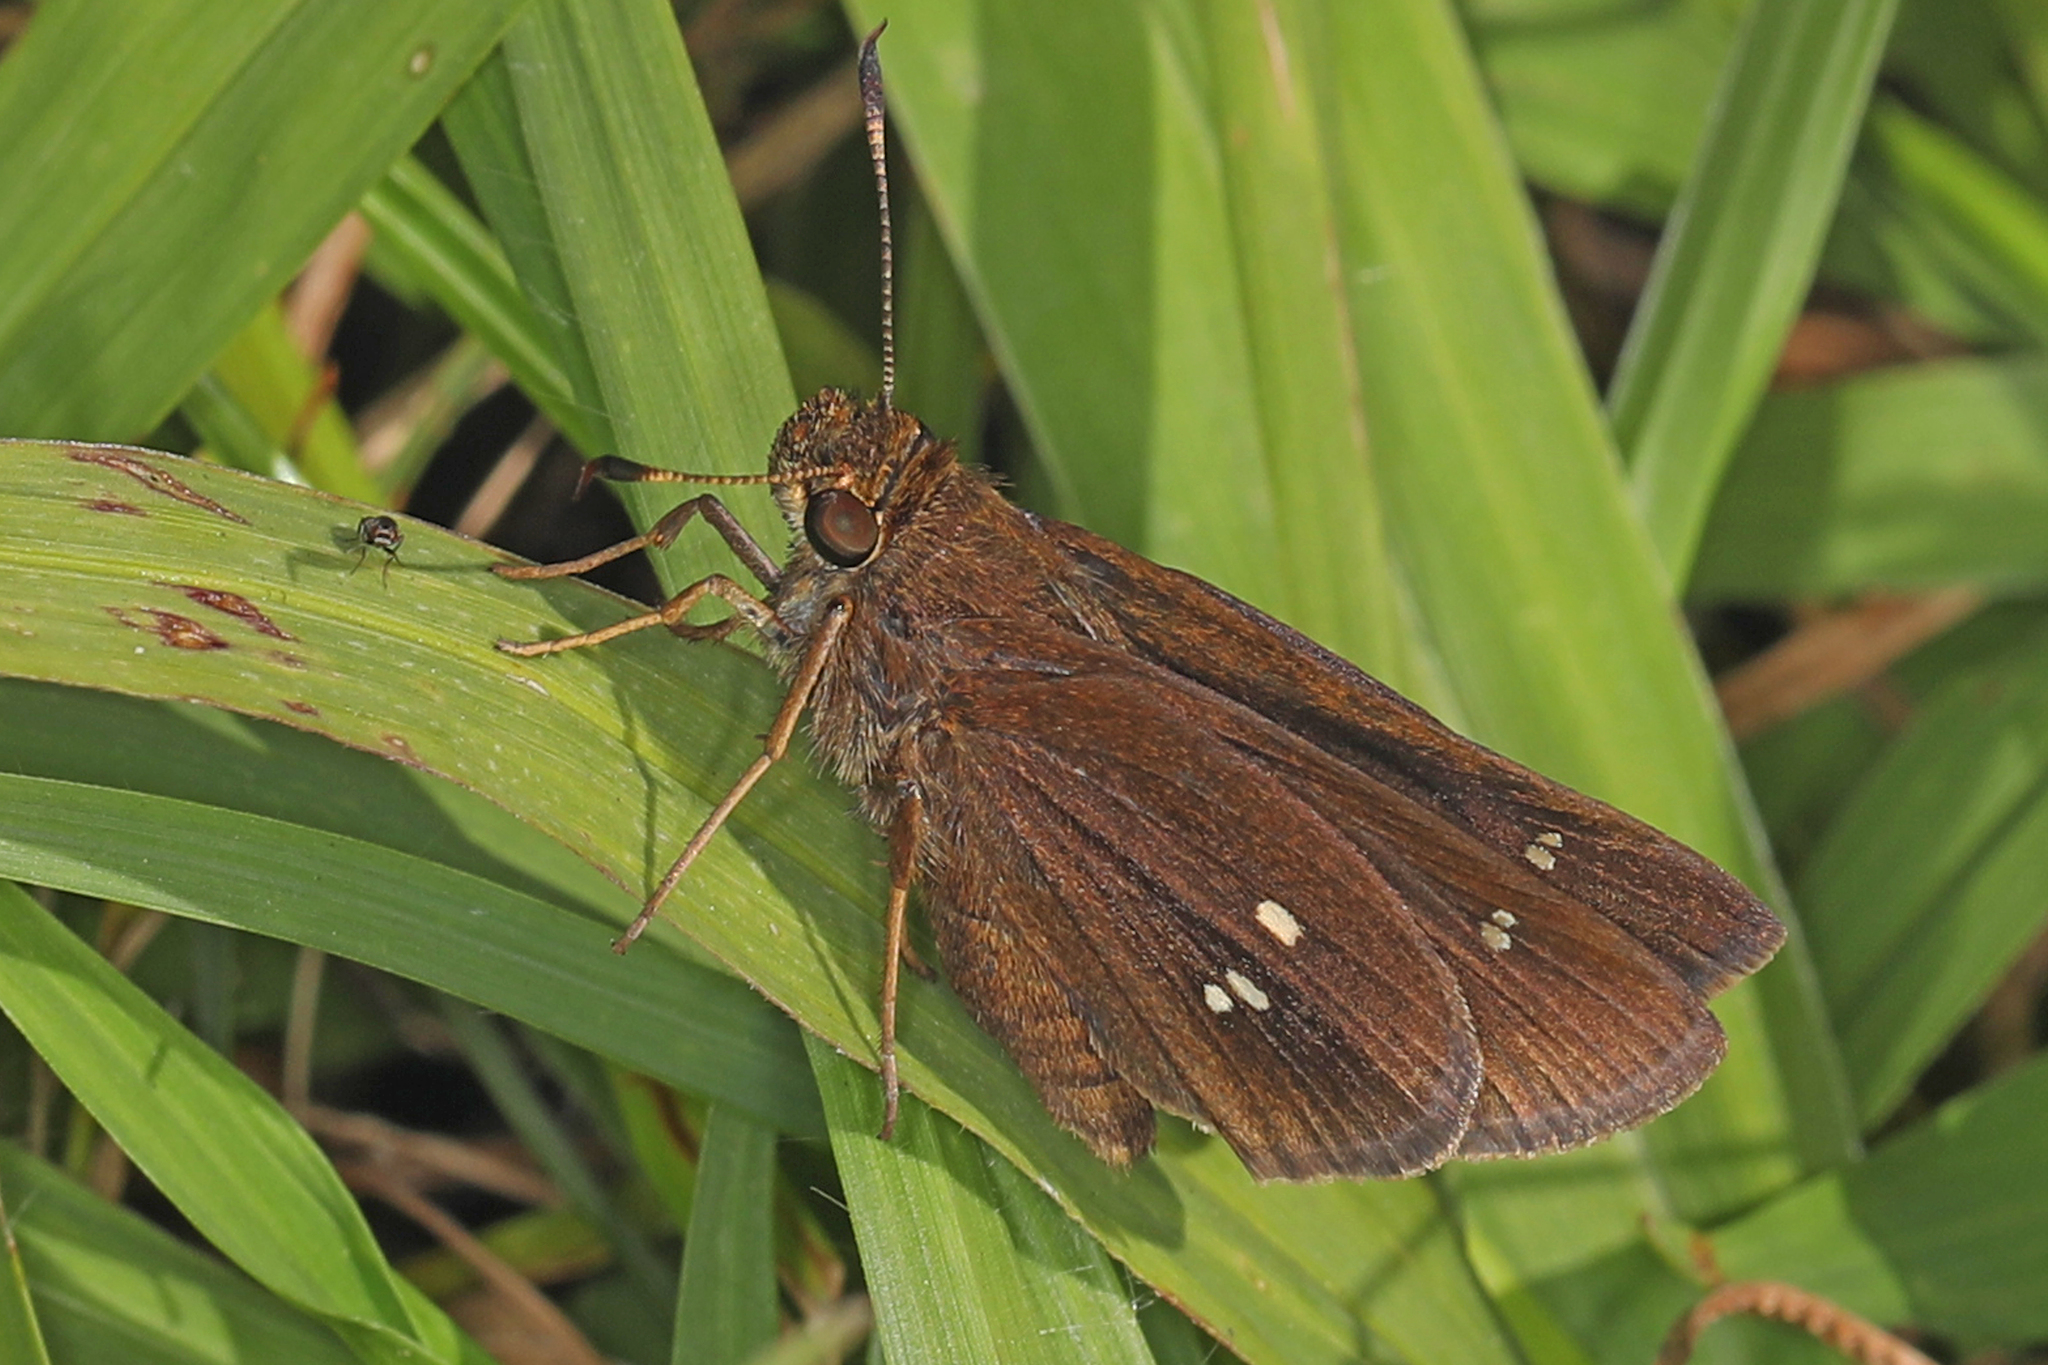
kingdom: Animalia
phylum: Arthropoda
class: Insecta
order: Lepidoptera
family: Hesperiidae
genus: Oligoria
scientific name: Oligoria maculata
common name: Twin-spot skipper
